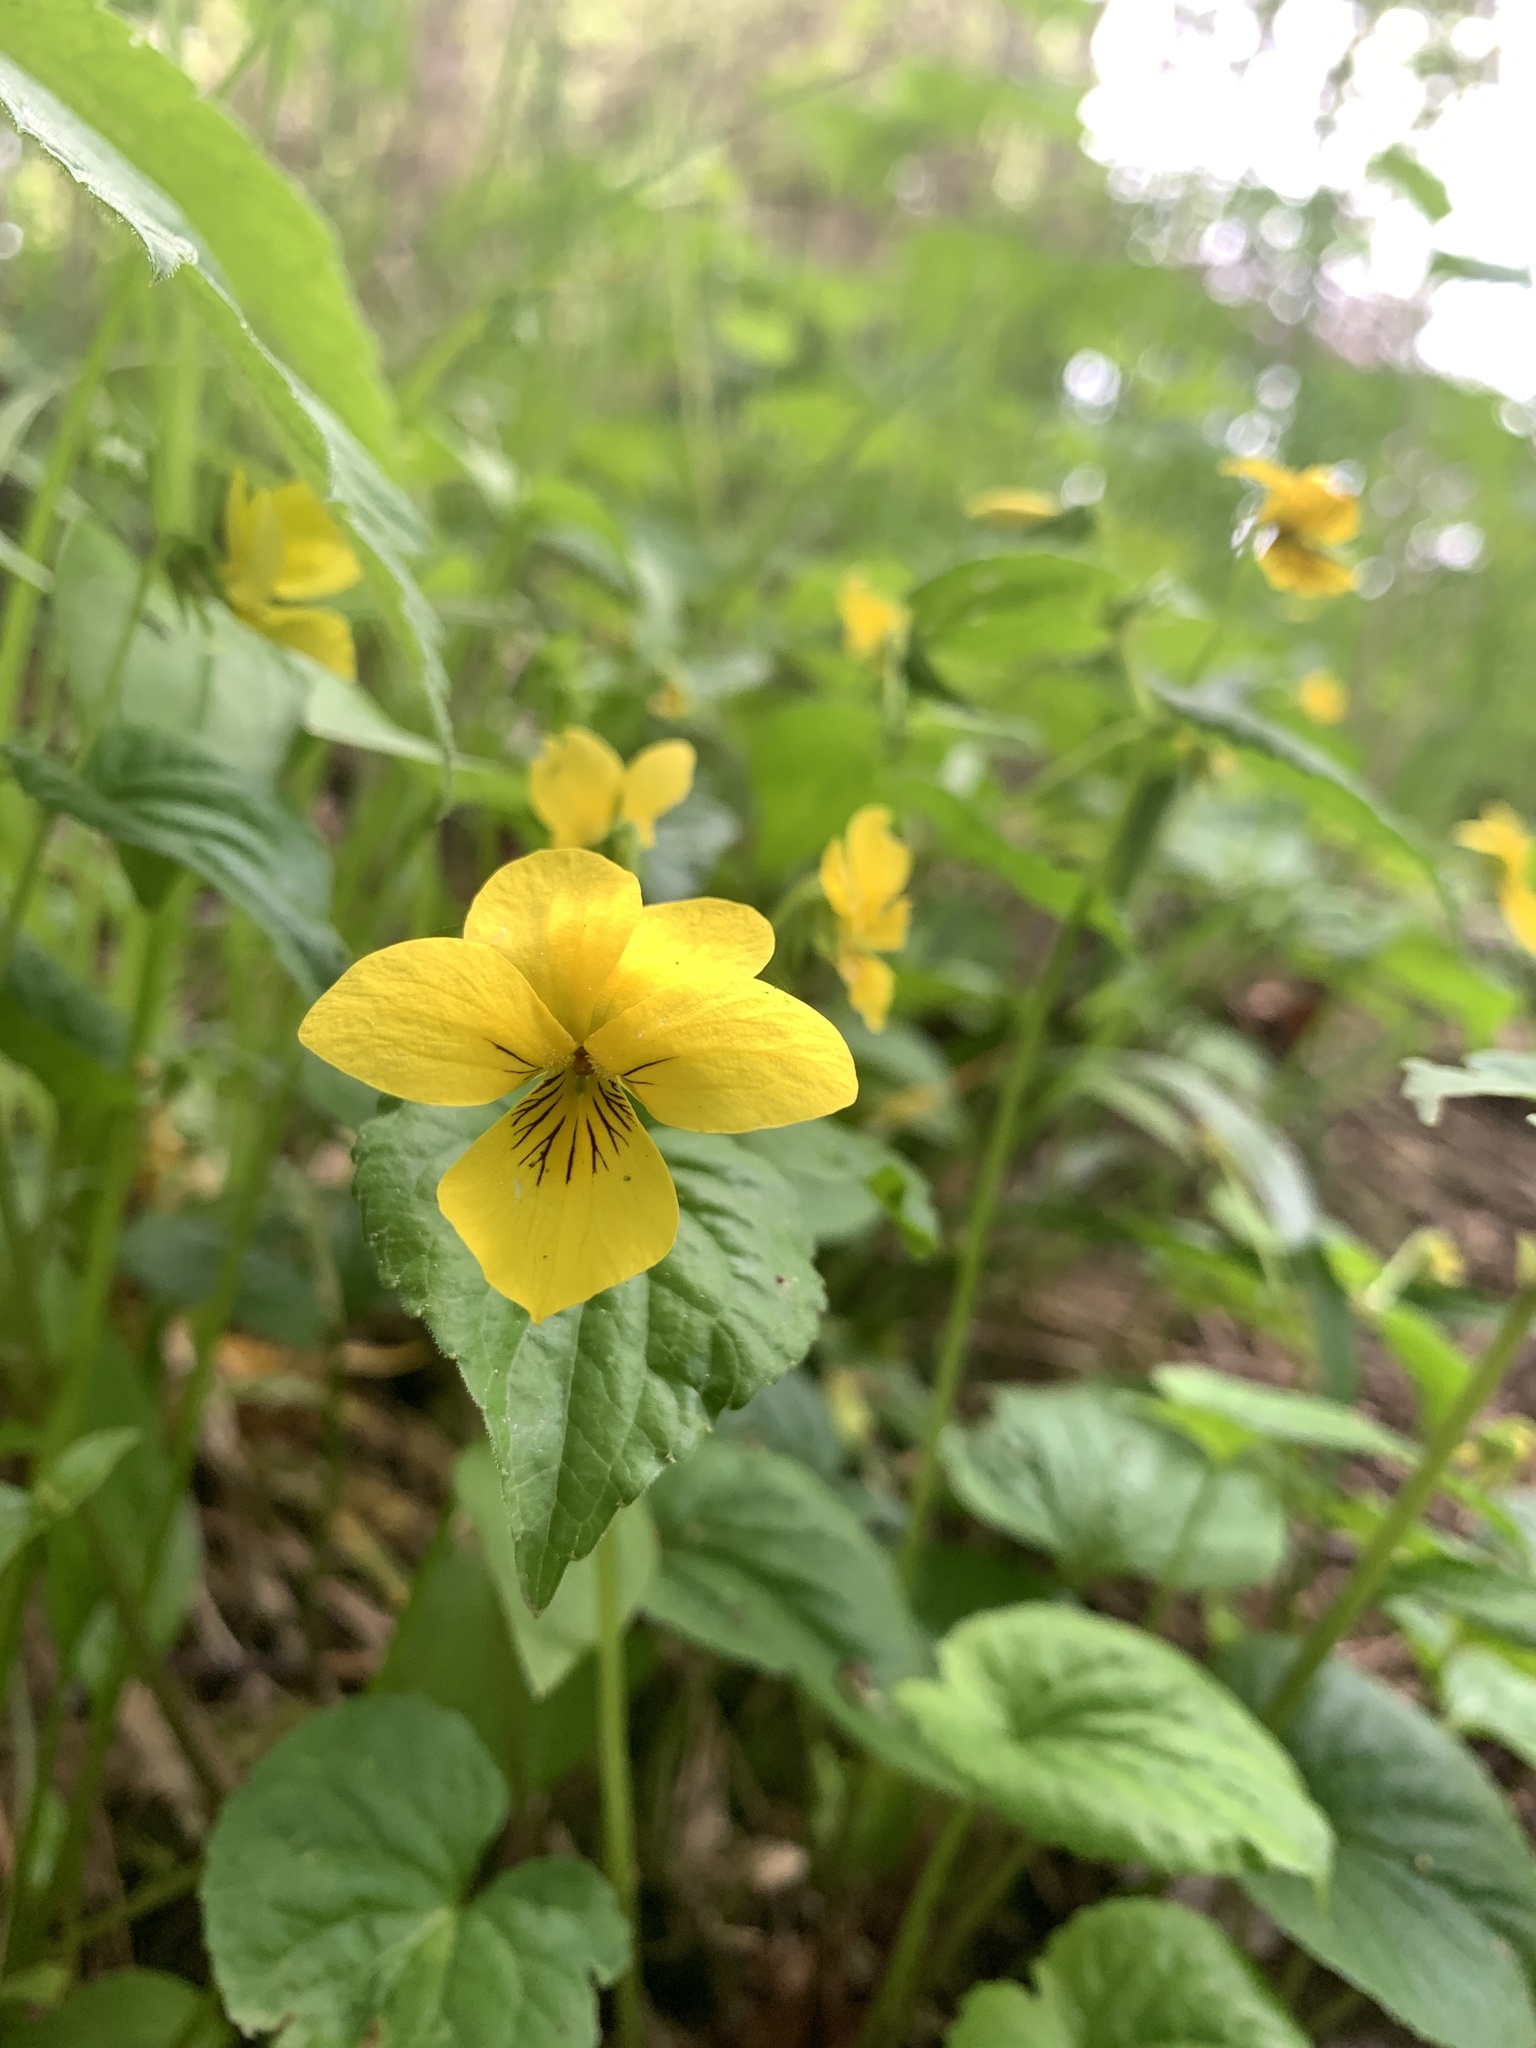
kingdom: Plantae
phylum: Tracheophyta
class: Magnoliopsida
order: Malpighiales
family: Violaceae
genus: Viola
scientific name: Viola glabella
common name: Stream violet
